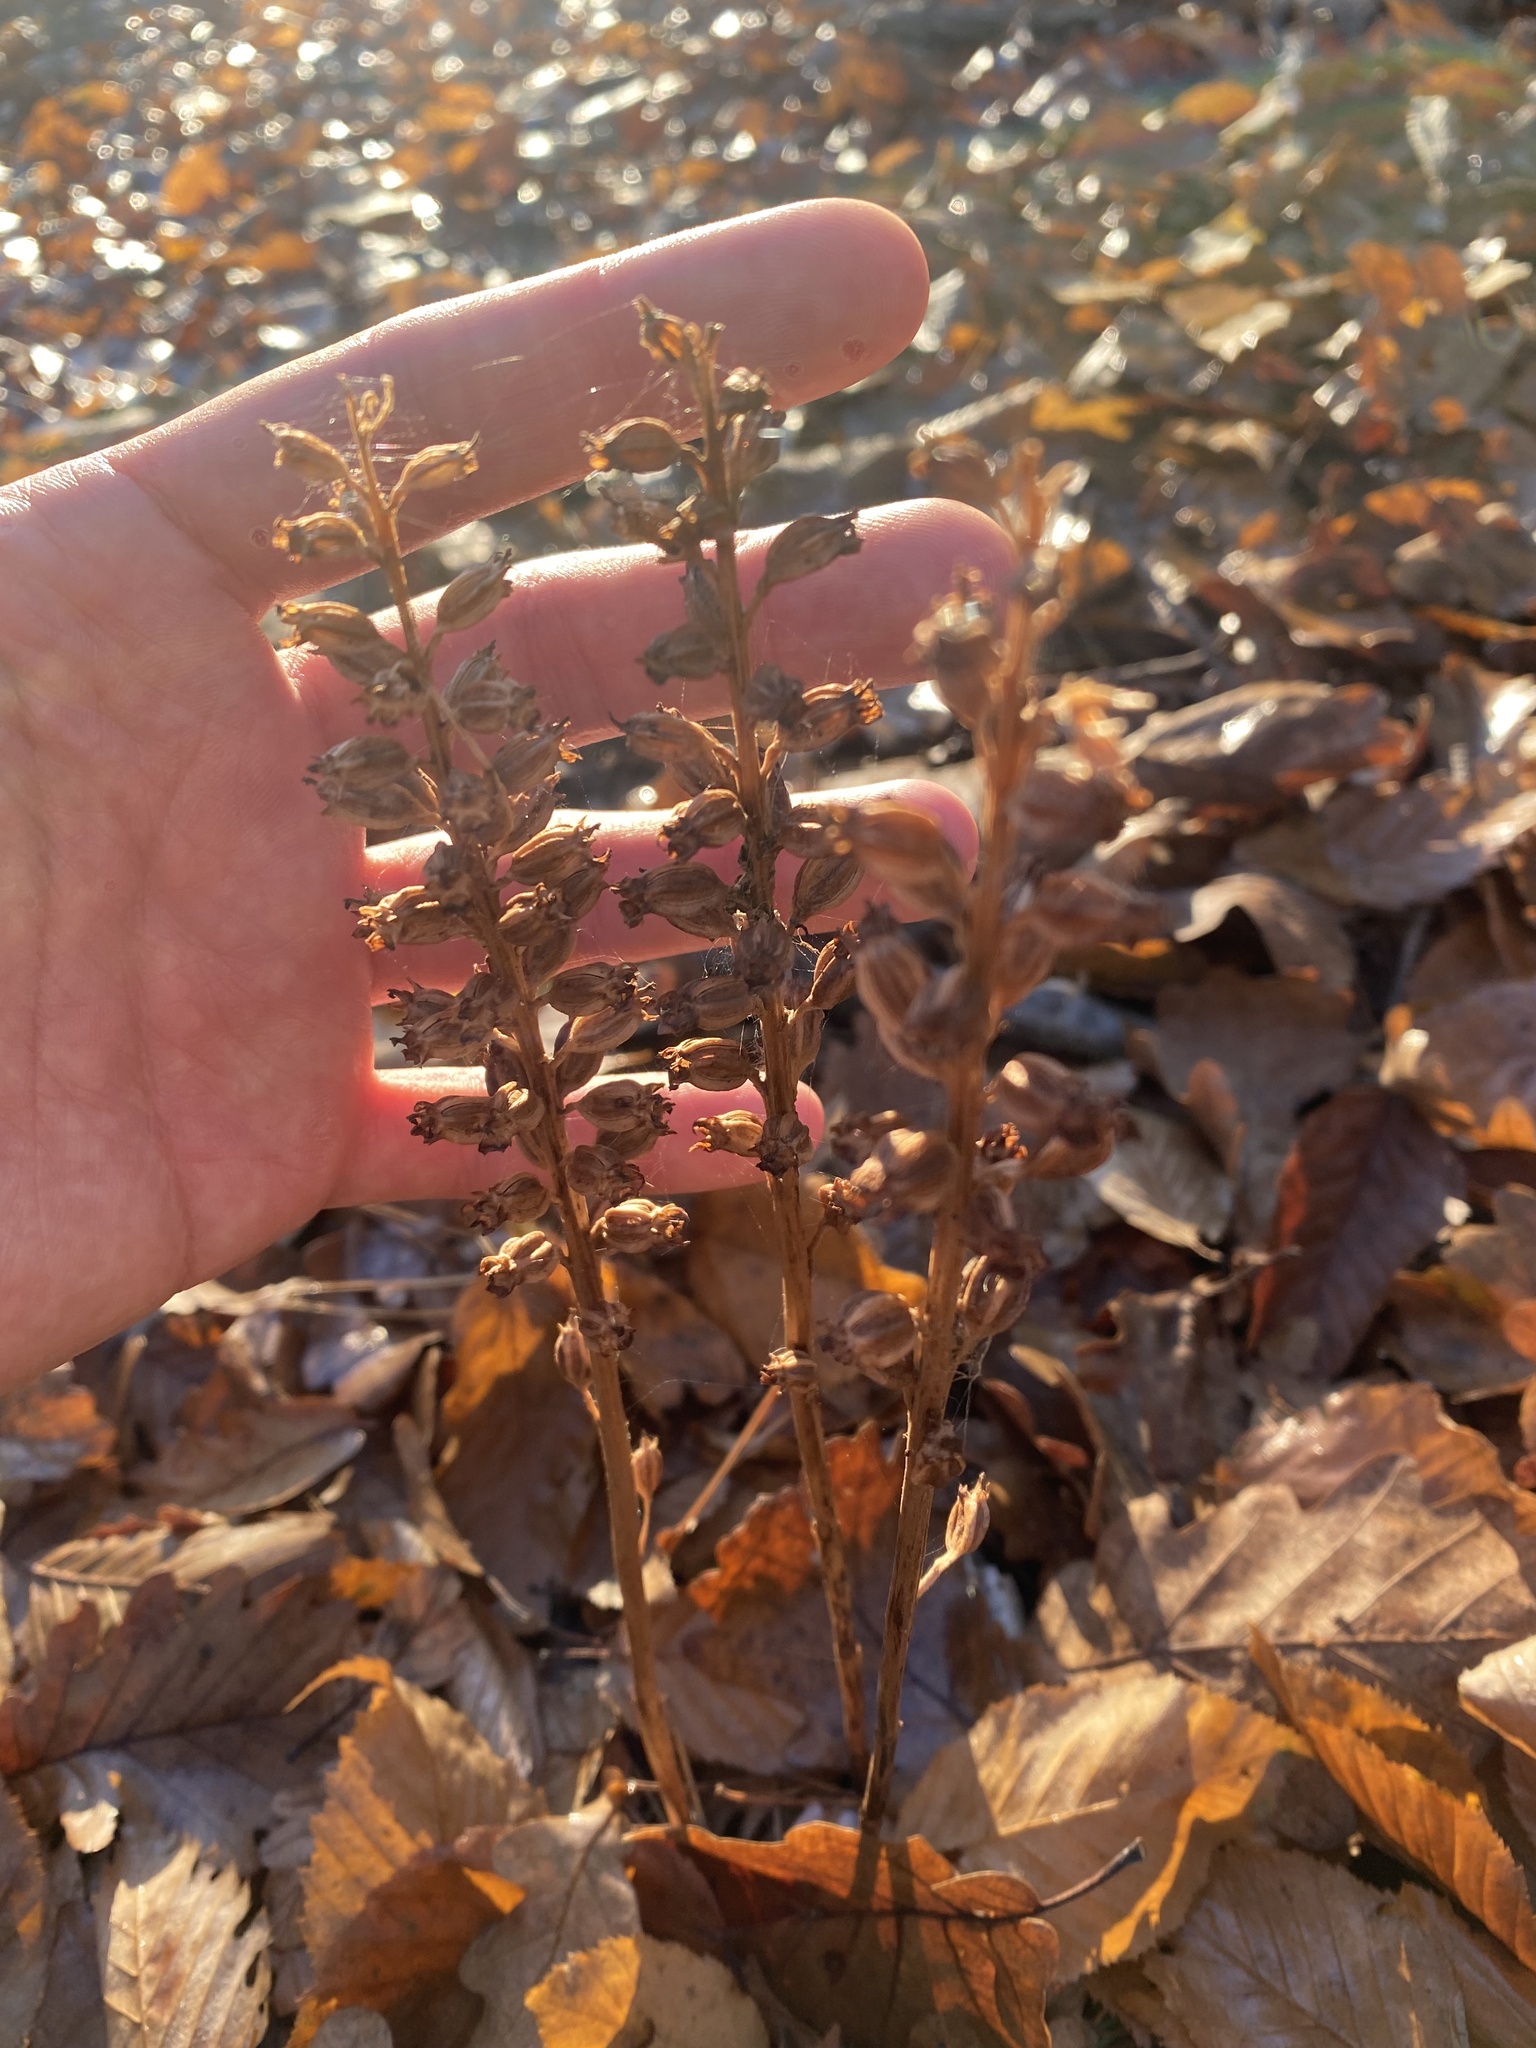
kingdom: Plantae
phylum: Tracheophyta
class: Liliopsida
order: Asparagales
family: Orchidaceae
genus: Neottia
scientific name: Neottia nidus-avis
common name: Bird's-nest orchid
